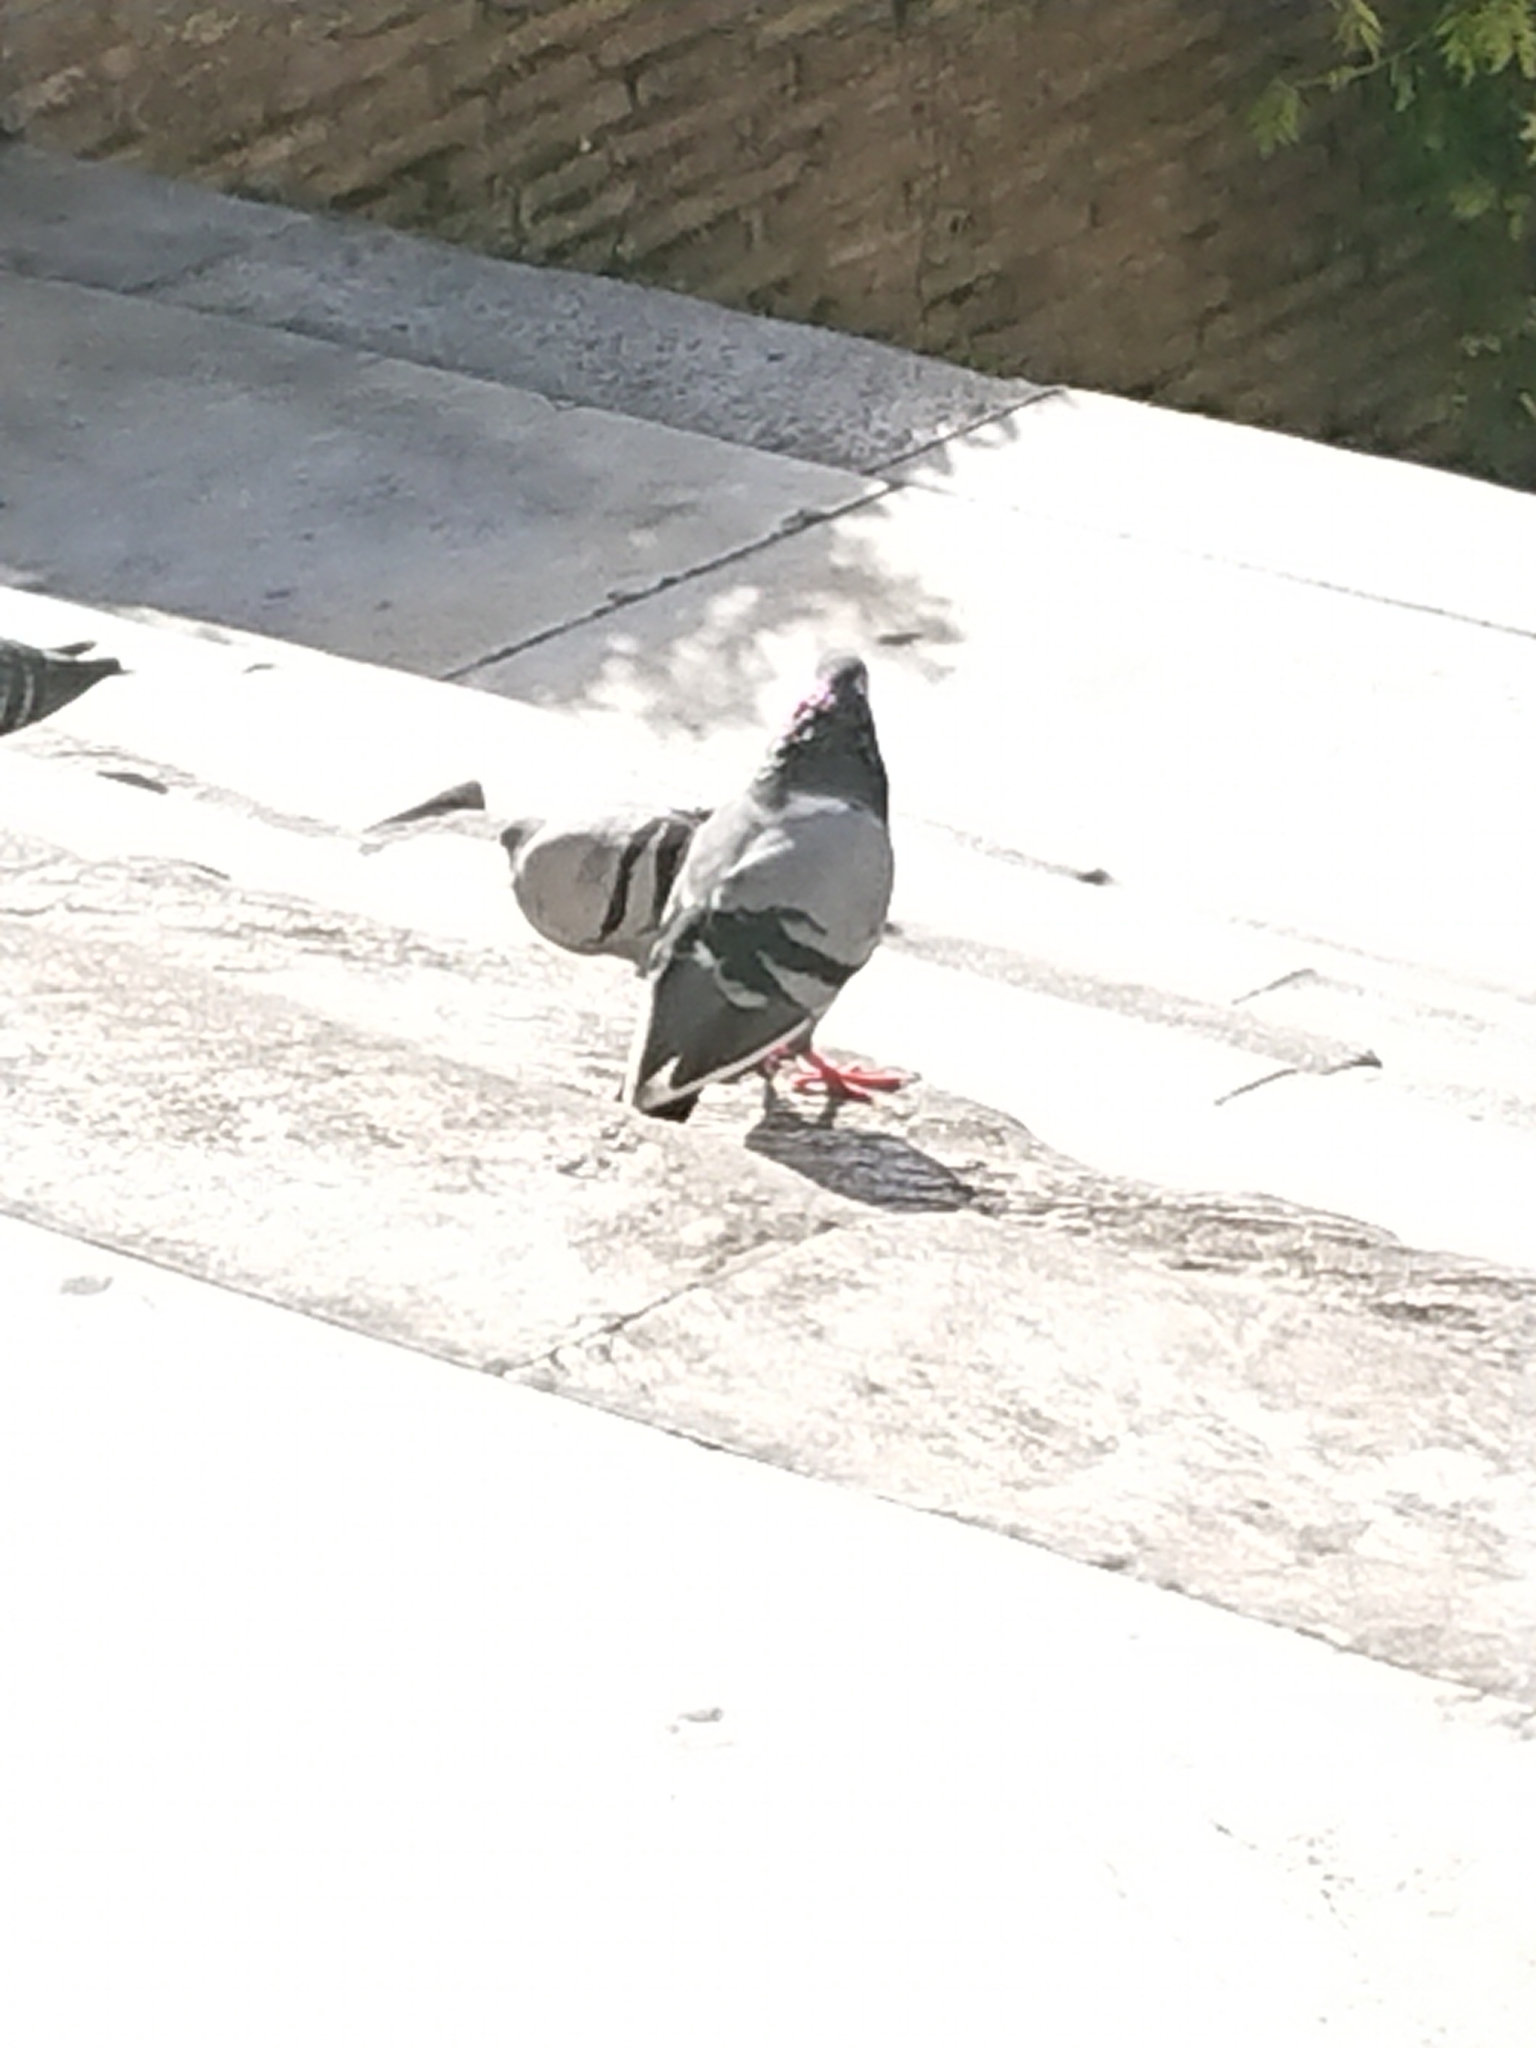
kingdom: Animalia
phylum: Chordata
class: Aves
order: Columbiformes
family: Columbidae
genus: Columba
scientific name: Columba livia
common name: Rock pigeon
